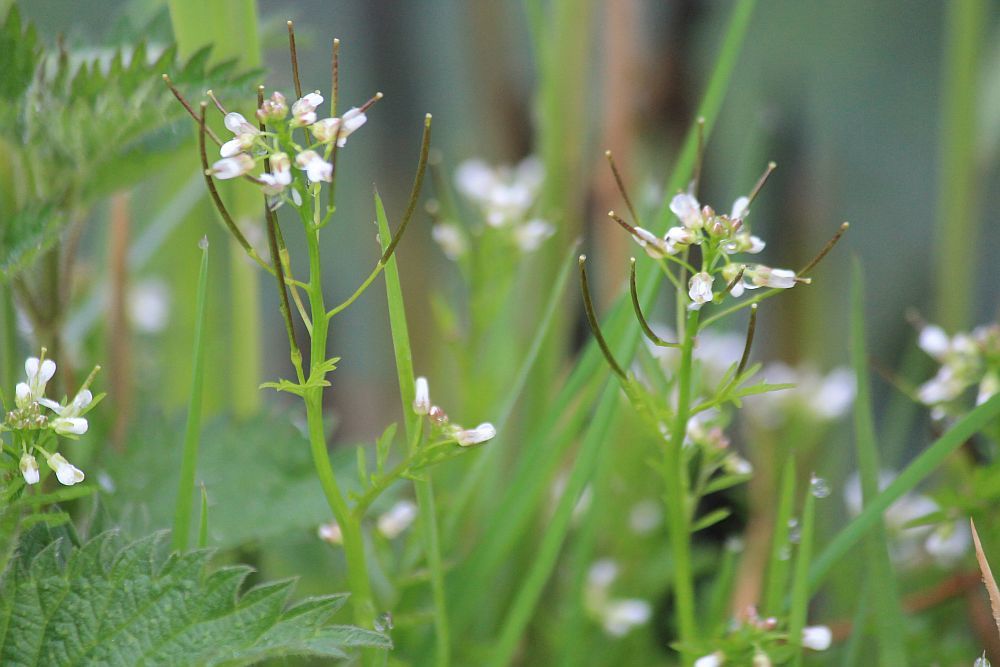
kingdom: Plantae
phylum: Tracheophyta
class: Magnoliopsida
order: Brassicales
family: Brassicaceae
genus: Cardamine
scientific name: Cardamine flexuosa
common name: Woodland bittercress
